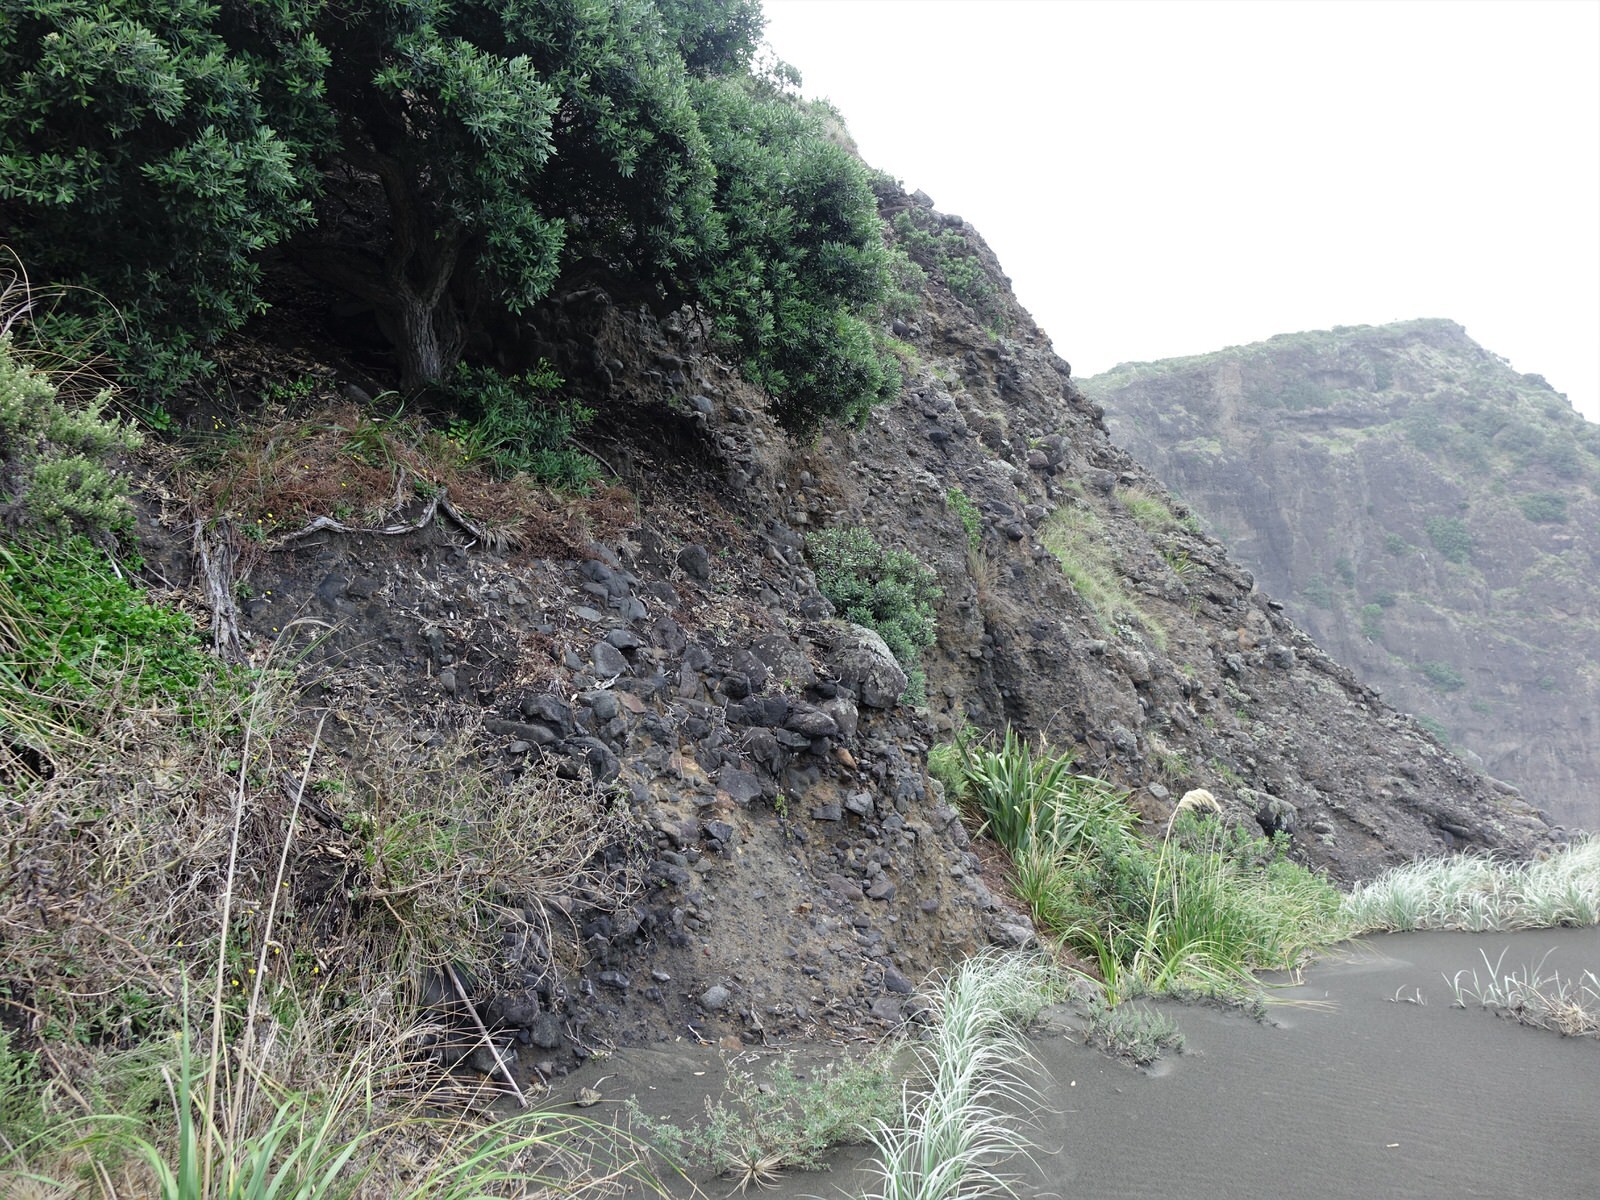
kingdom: Animalia
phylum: Chordata
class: Aves
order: Galliformes
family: Odontophoridae
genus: Callipepla
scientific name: Callipepla californica
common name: California quail
